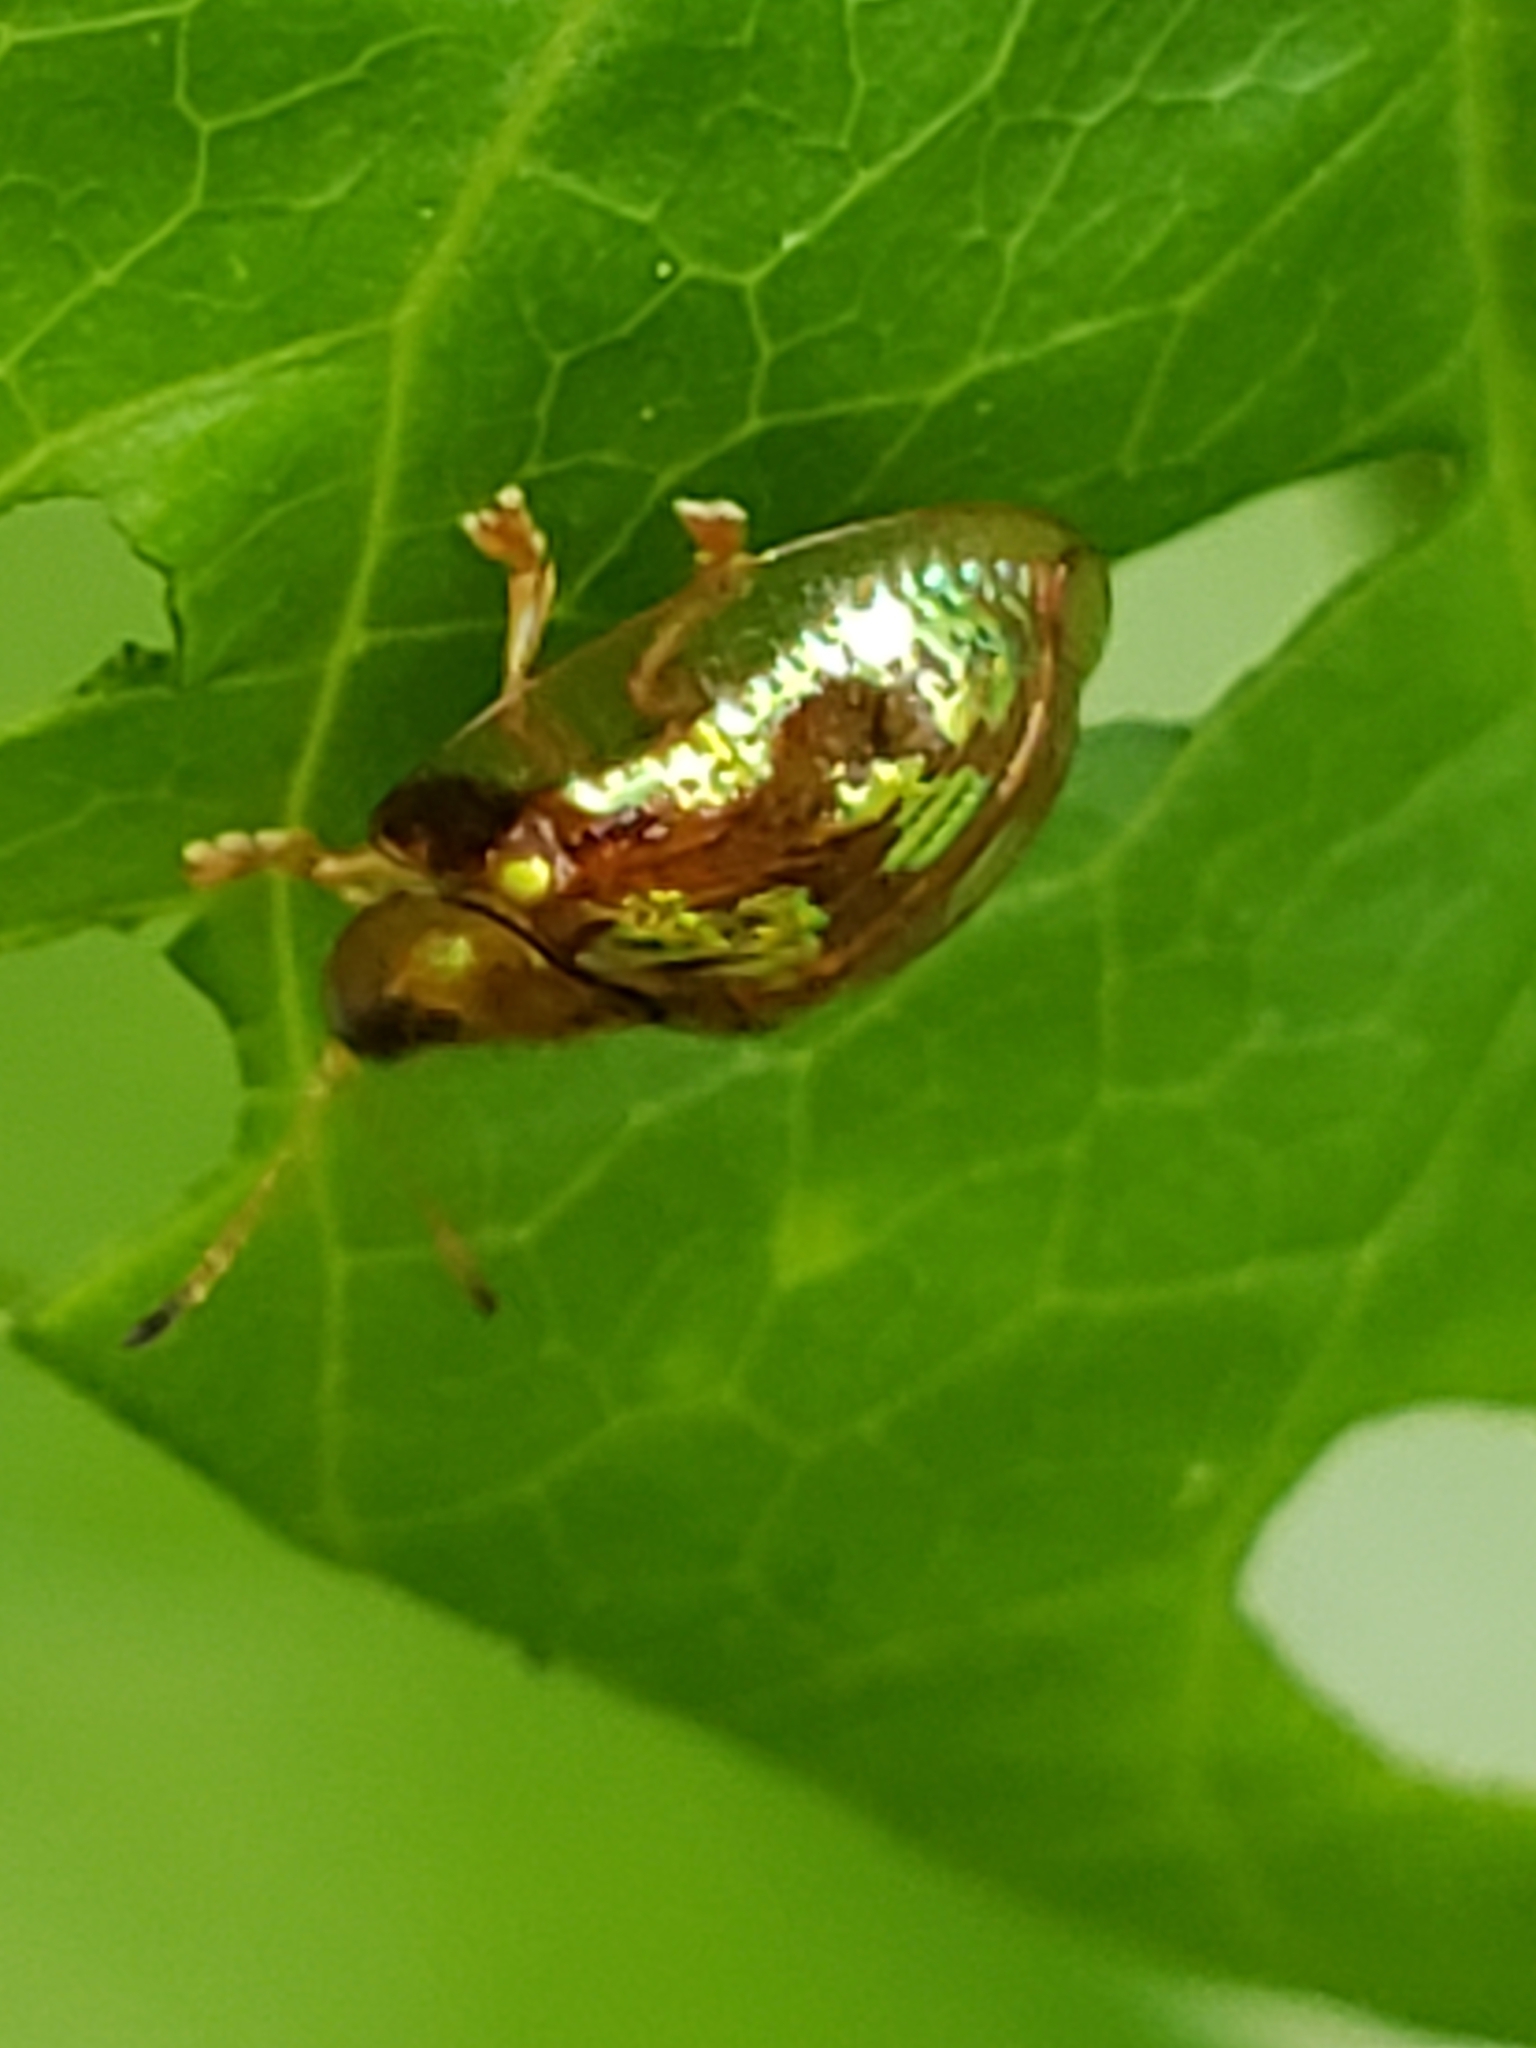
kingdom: Animalia
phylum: Arthropoda
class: Insecta
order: Coleoptera
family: Chrysomelidae
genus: Deloyala
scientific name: Deloyala guttata
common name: Mottled tortoise beetle
